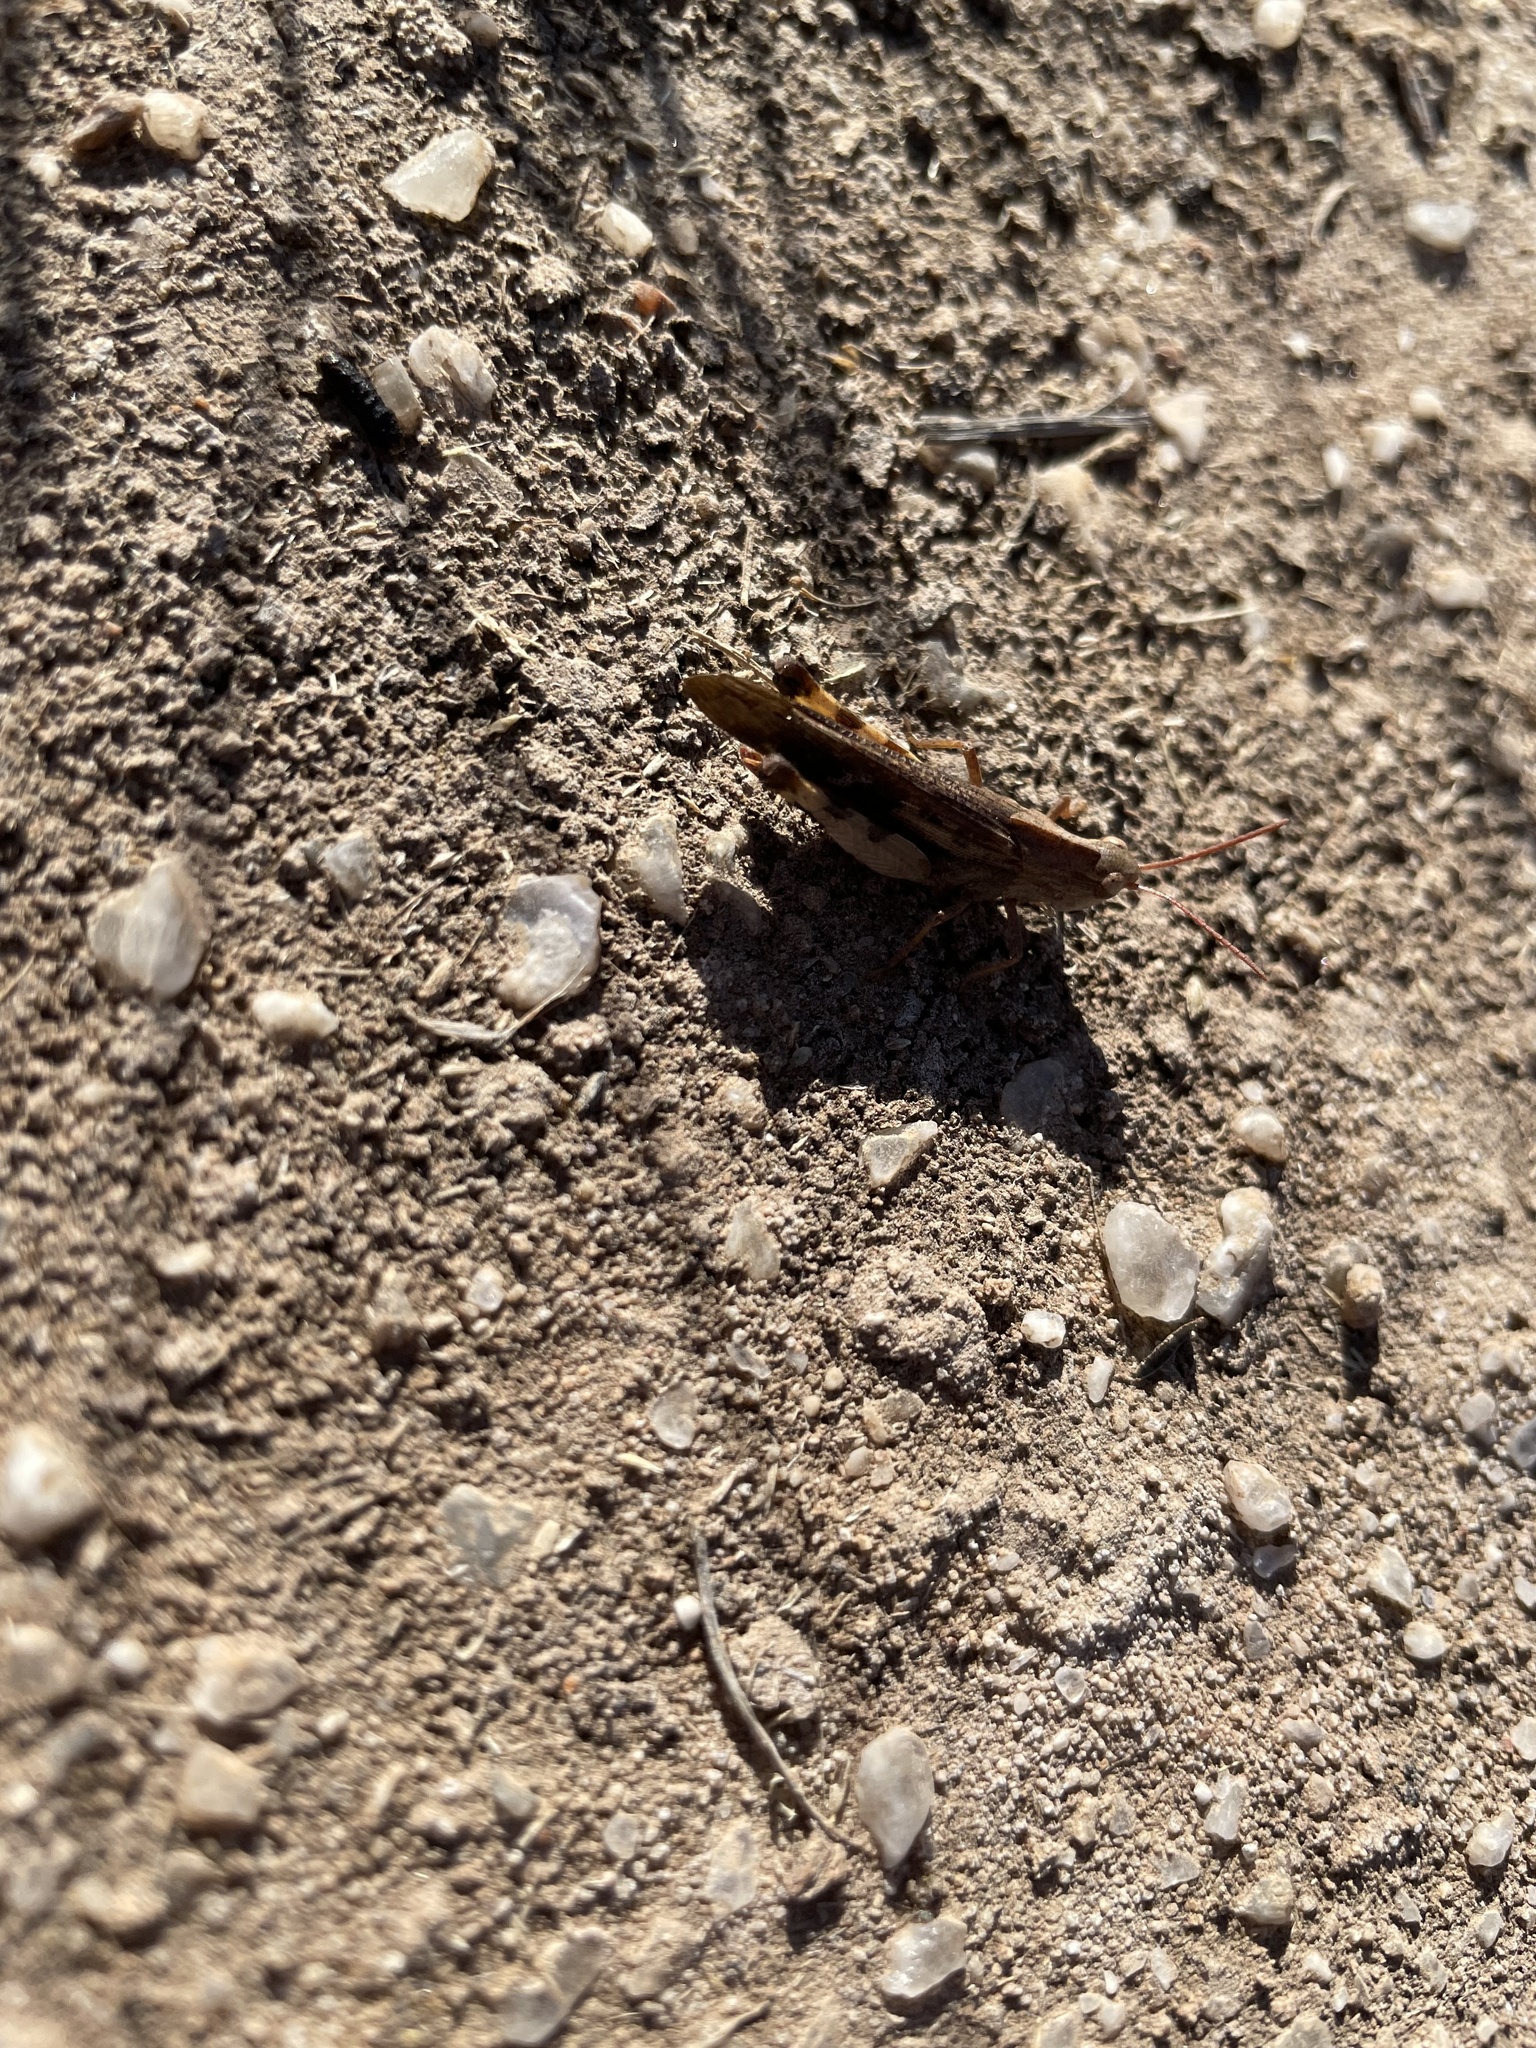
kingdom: Animalia
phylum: Arthropoda
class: Insecta
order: Orthoptera
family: Acrididae
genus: Chortophaga
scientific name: Chortophaga viridifasciata
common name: Green-striped grasshopper
